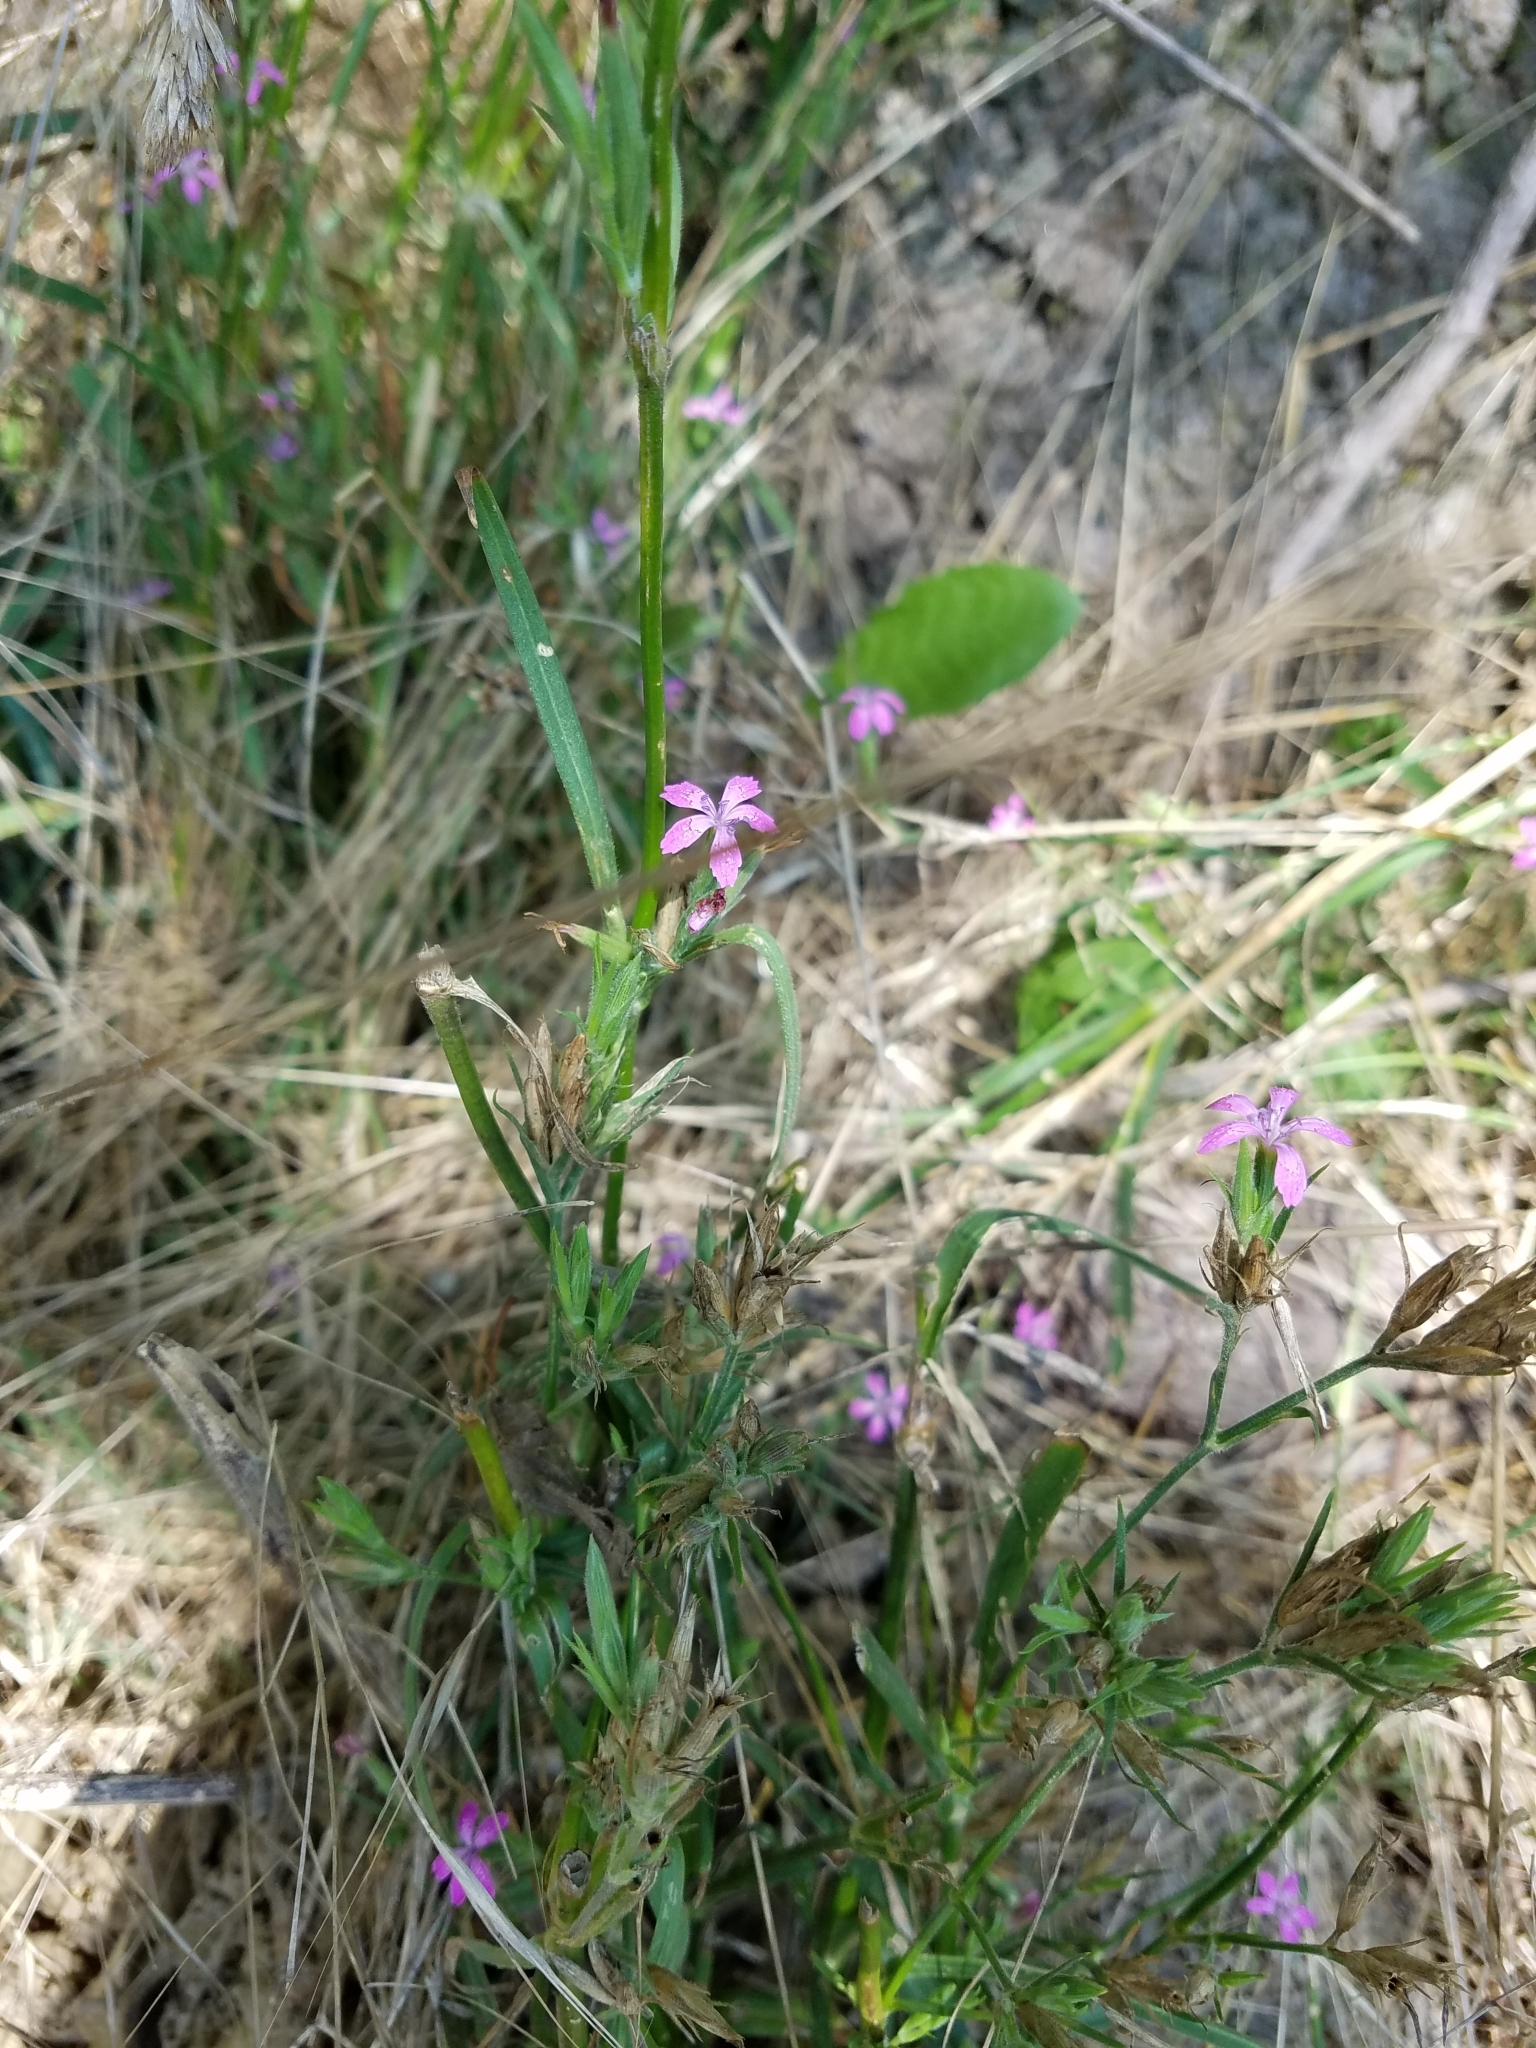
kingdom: Plantae
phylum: Tracheophyta
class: Magnoliopsida
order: Caryophyllales
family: Caryophyllaceae
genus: Dianthus
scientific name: Dianthus armeria
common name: Deptford pink
